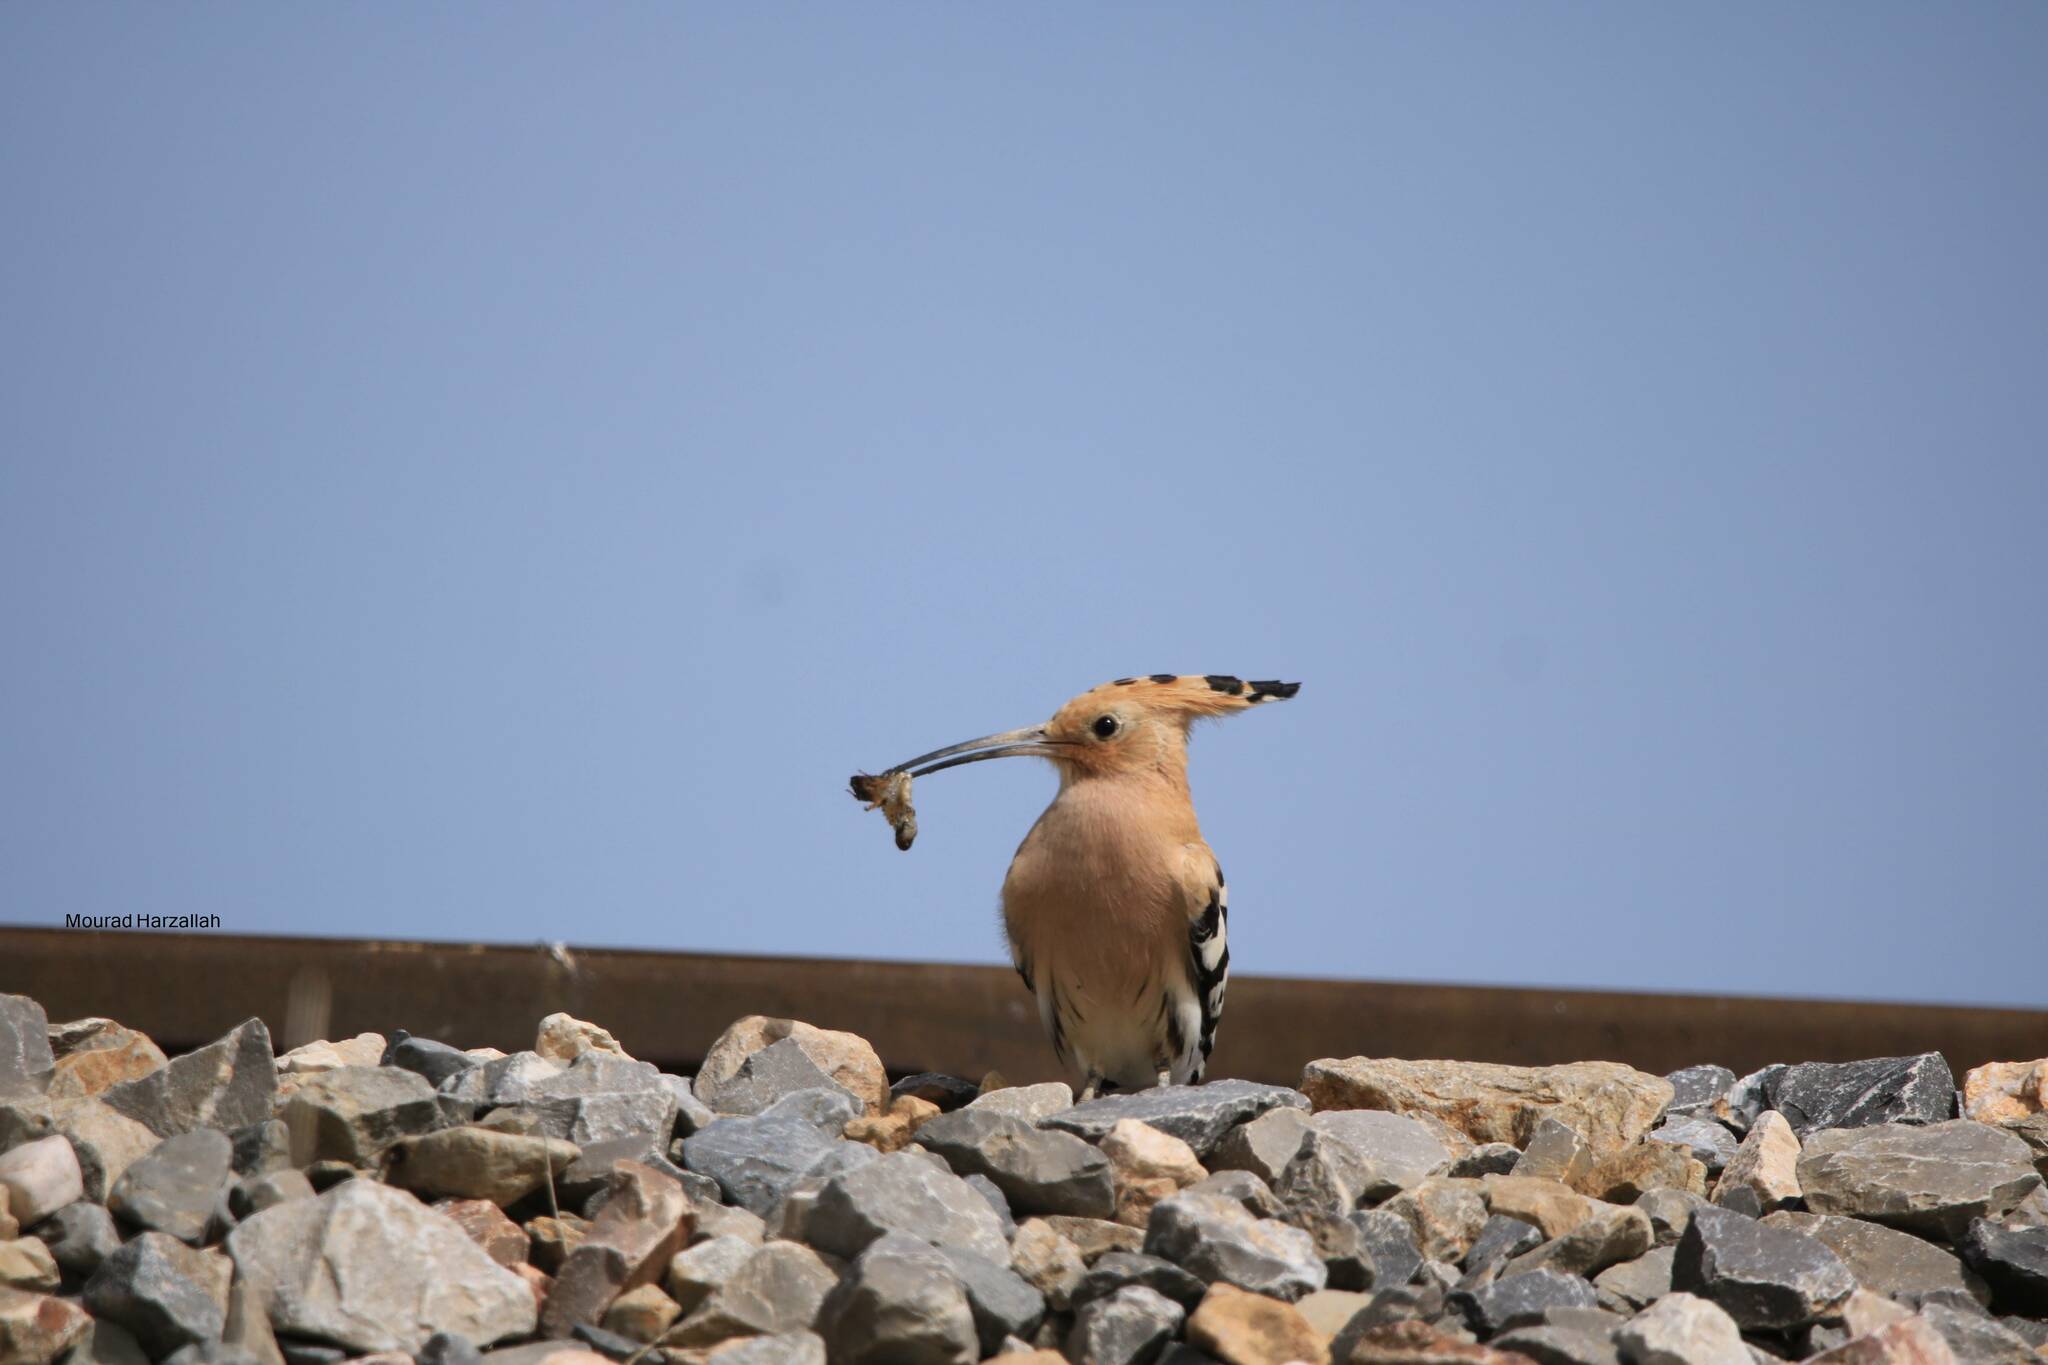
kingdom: Animalia
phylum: Chordata
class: Aves
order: Bucerotiformes
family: Upupidae
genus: Upupa
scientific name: Upupa epops
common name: Eurasian hoopoe
